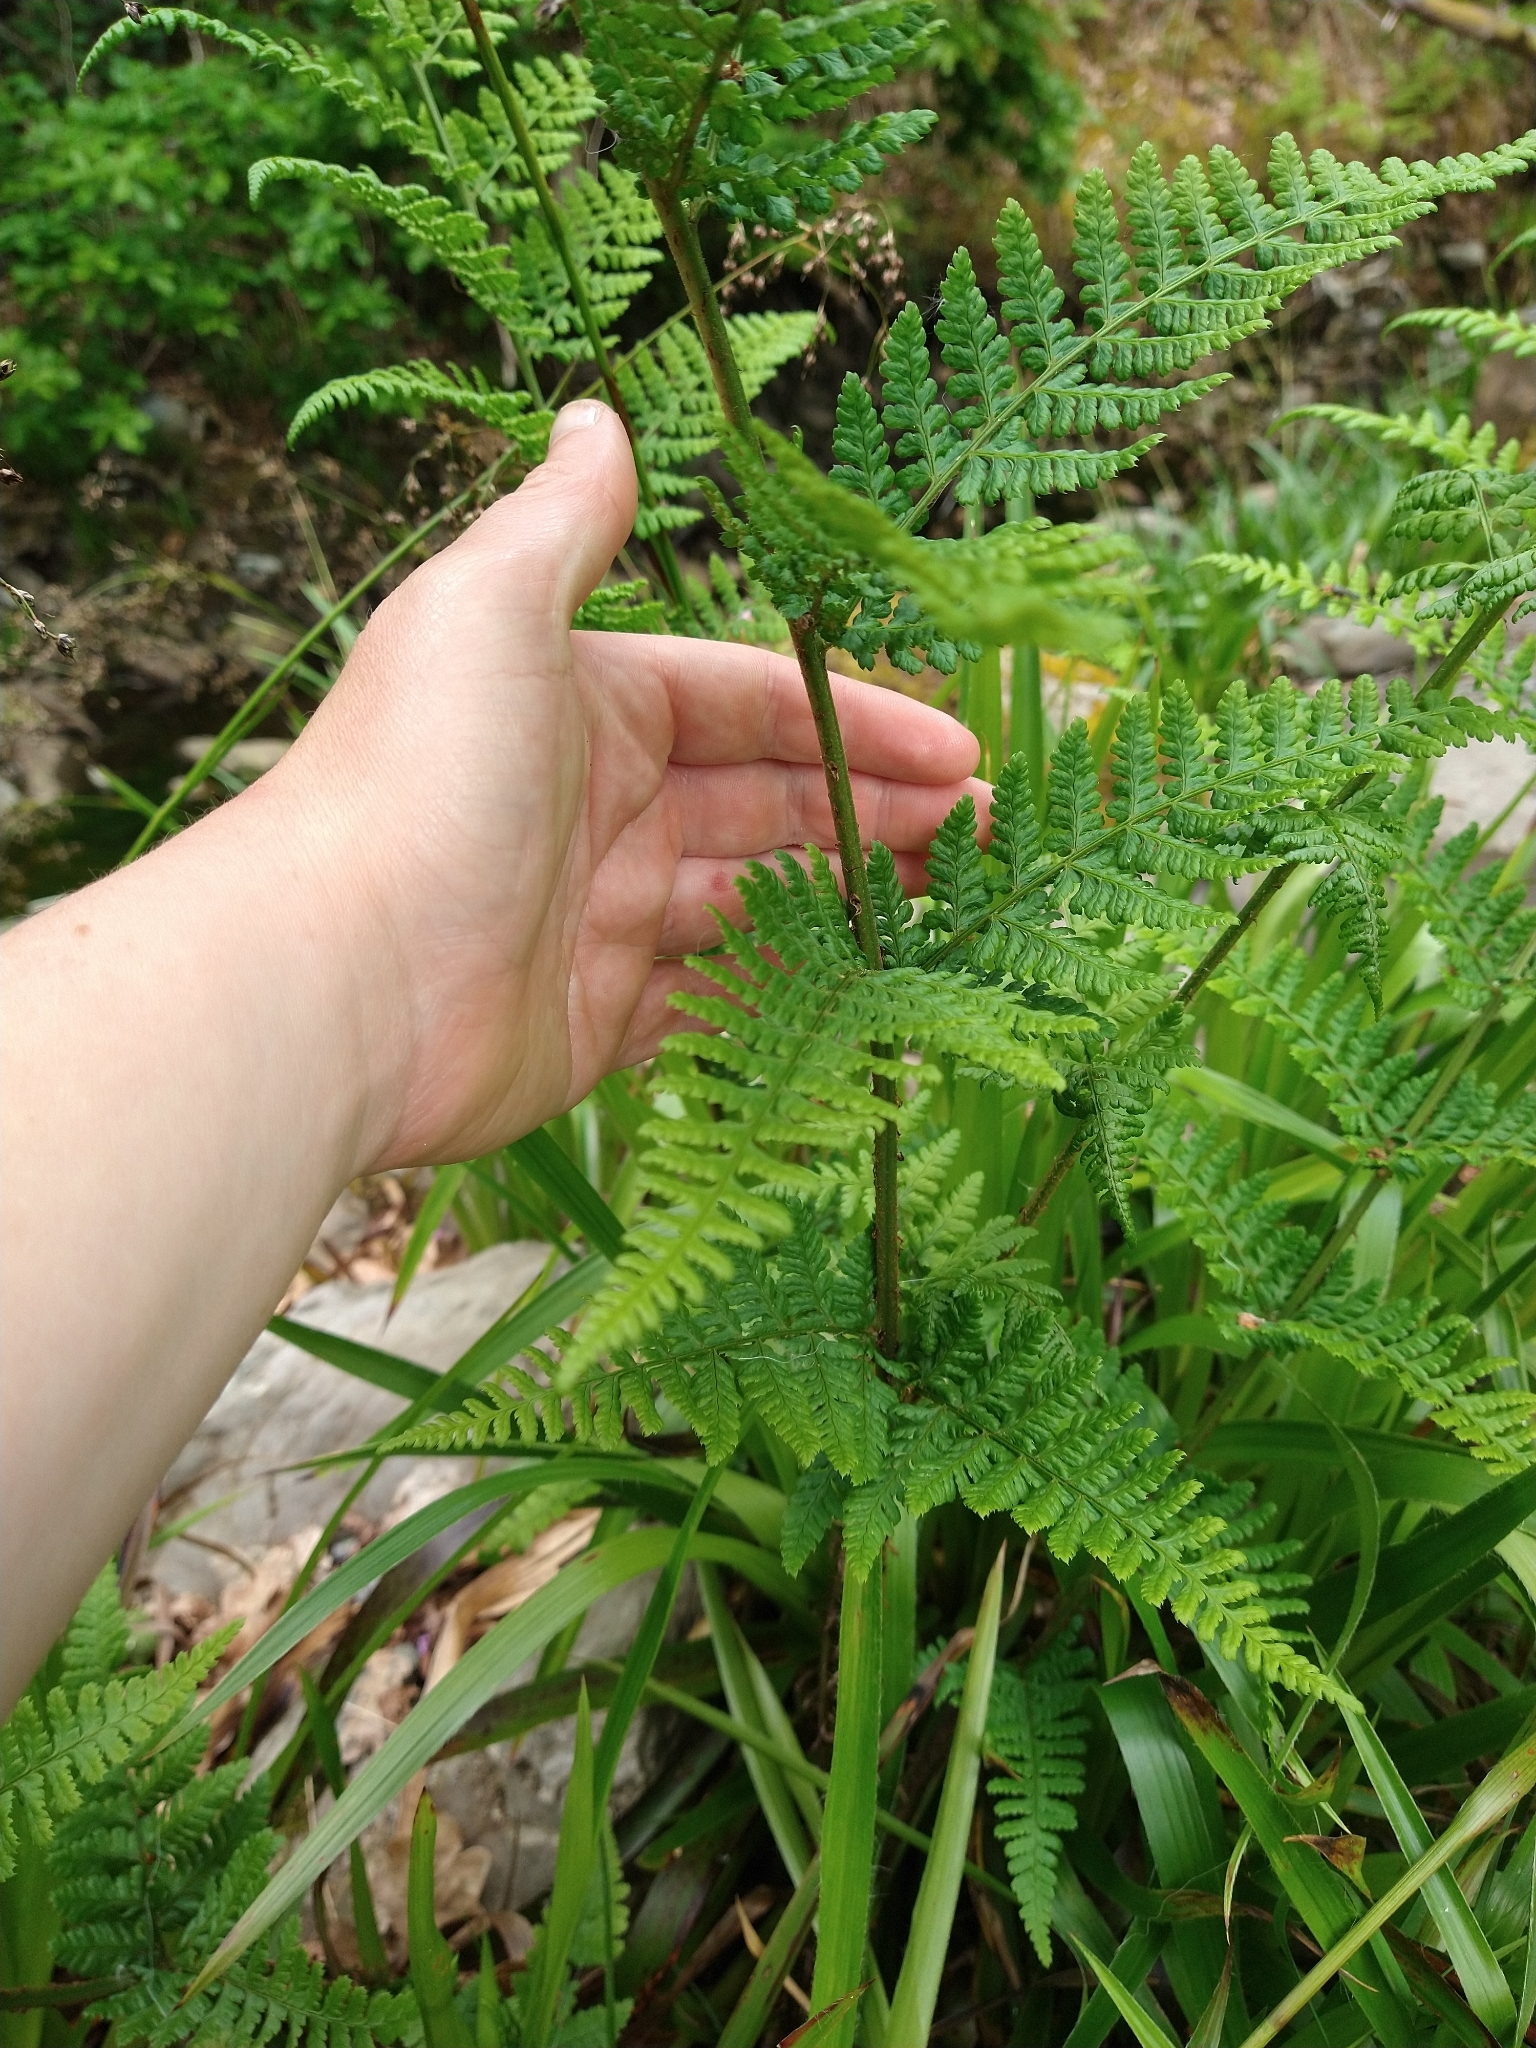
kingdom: Plantae
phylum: Tracheophyta
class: Polypodiopsida
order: Polypodiales
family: Dennstaedtiaceae
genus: Pteridium
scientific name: Pteridium aquilinum
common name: Bracken
